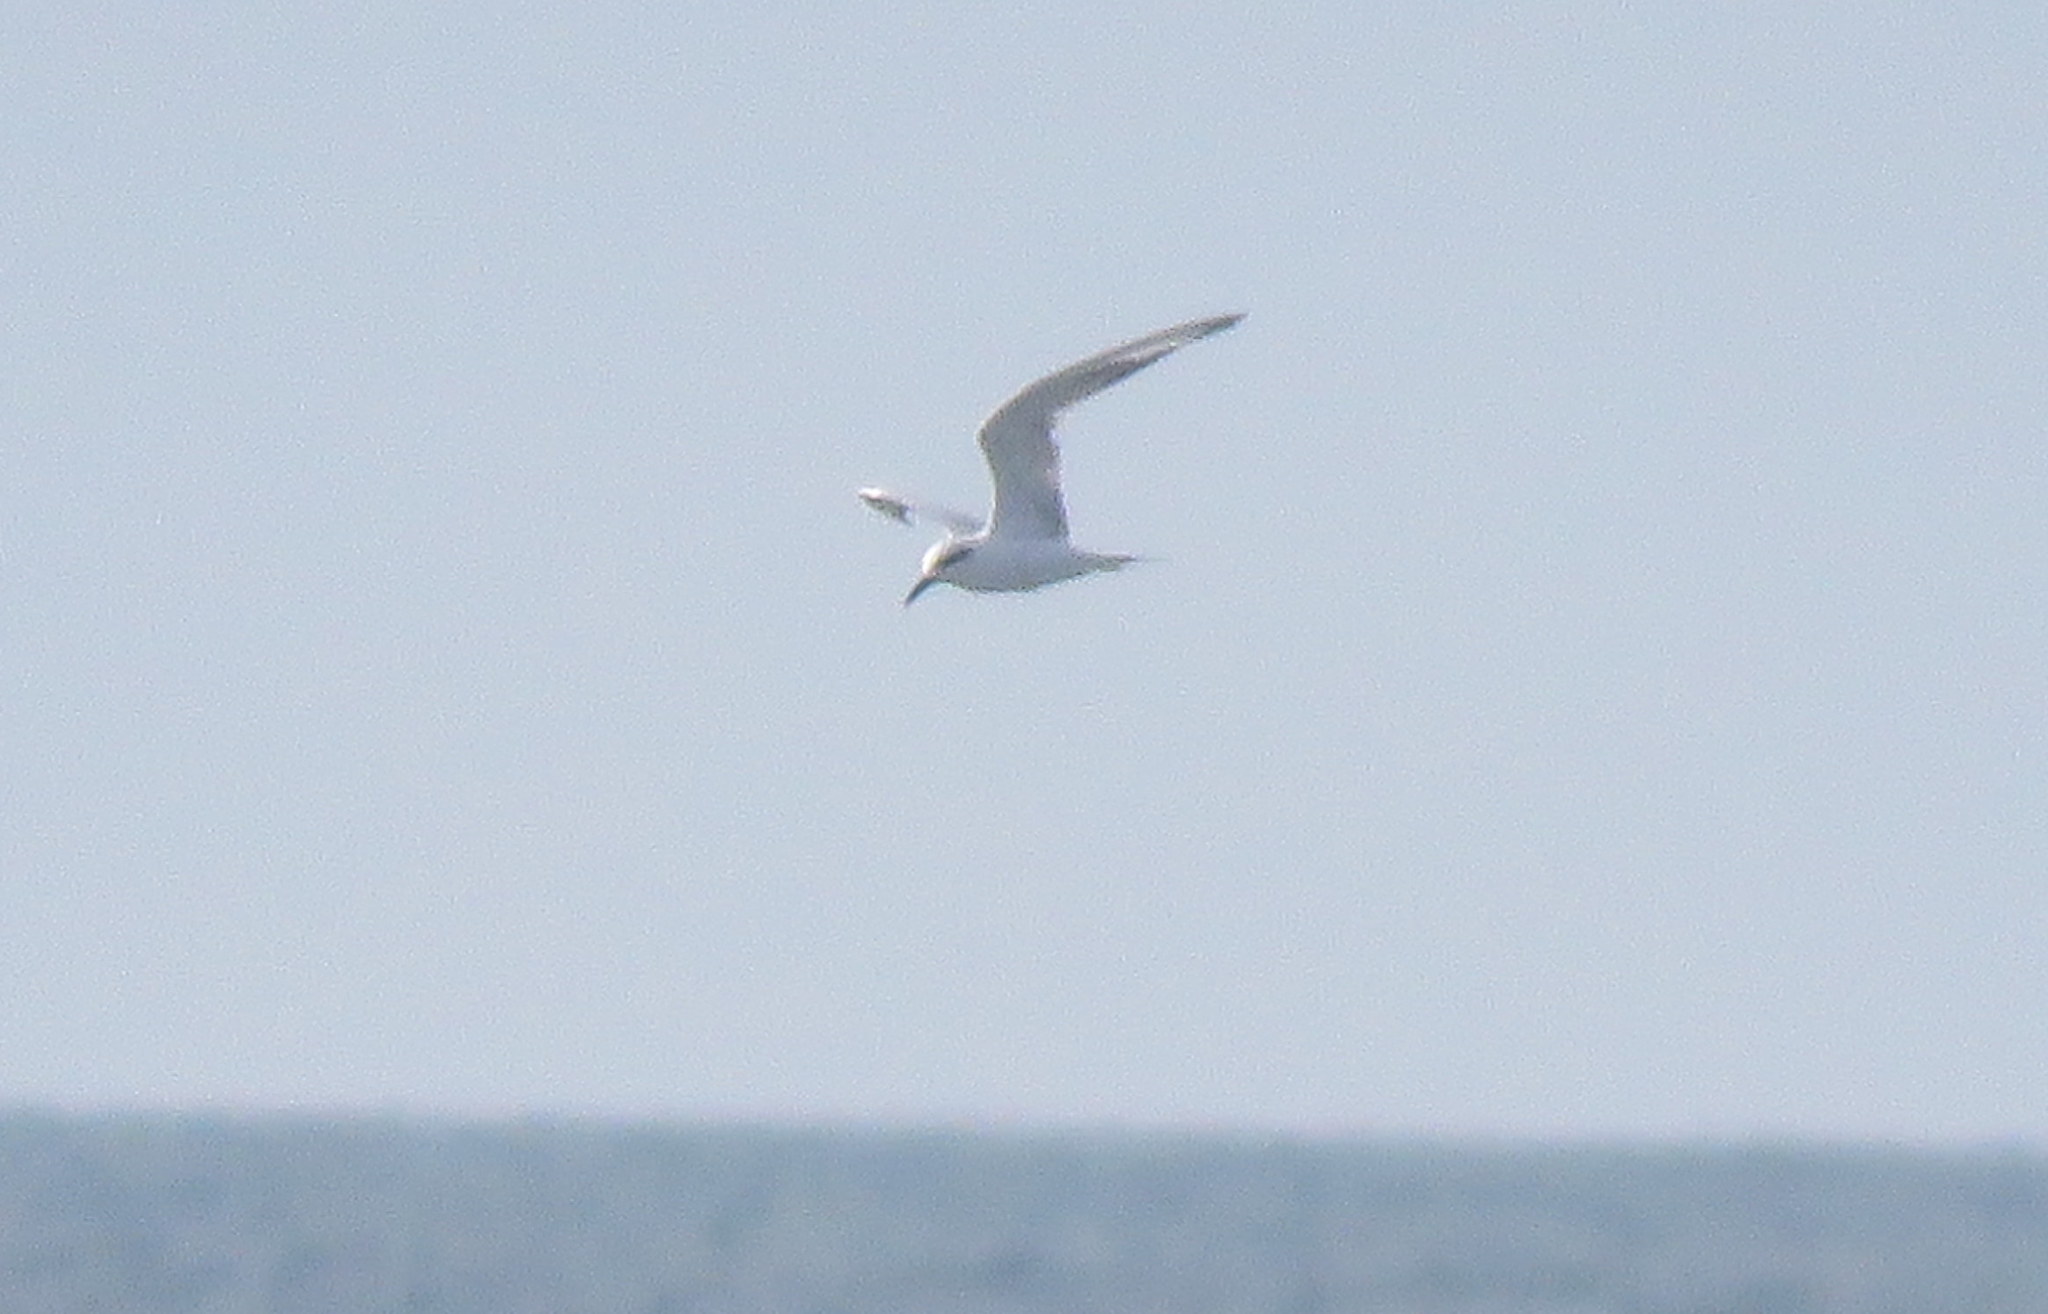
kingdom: Animalia
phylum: Chordata
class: Aves
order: Charadriiformes
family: Laridae
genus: Sterna
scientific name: Sterna trudeaui
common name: Snowy-crowned tern
